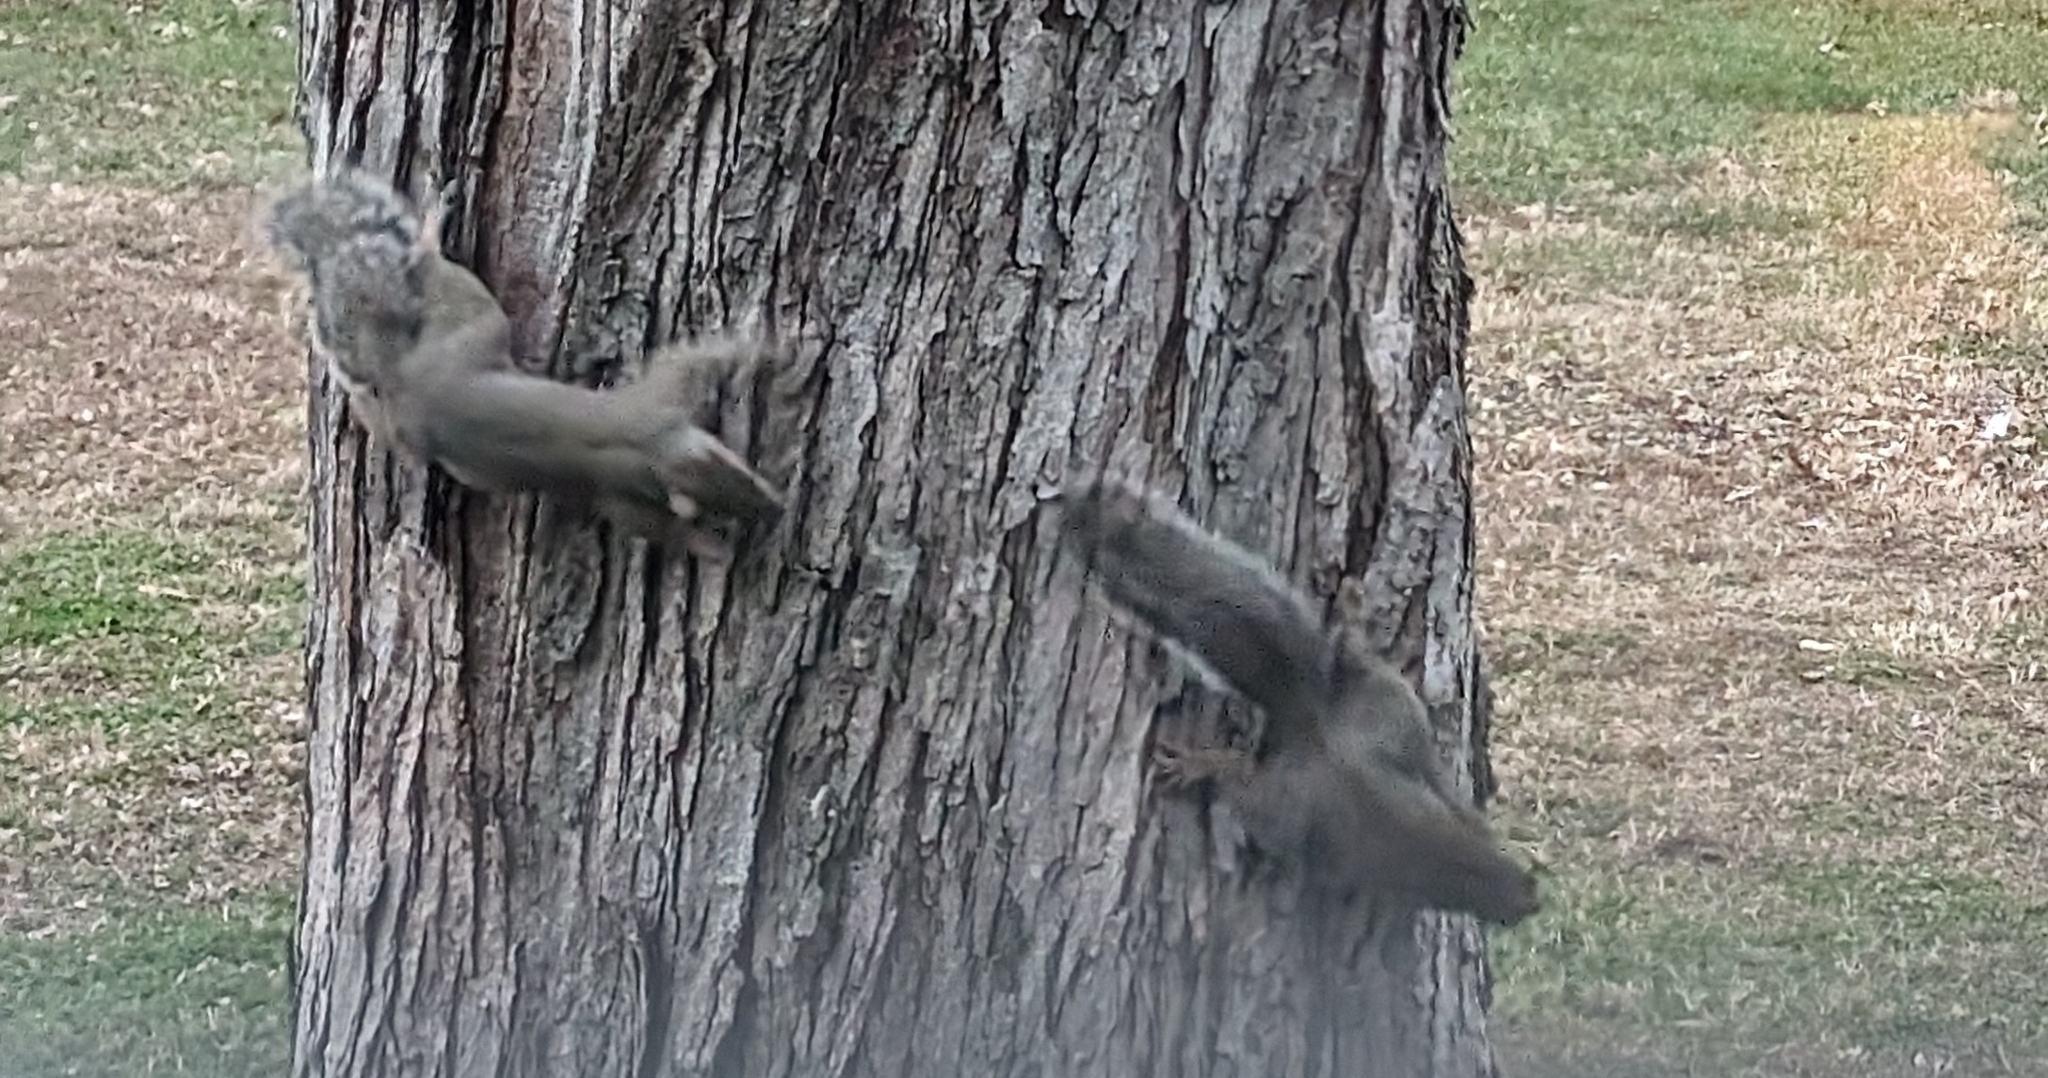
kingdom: Animalia
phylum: Chordata
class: Mammalia
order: Rodentia
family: Sciuridae
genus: Sciurus
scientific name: Sciurus carolinensis
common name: Eastern gray squirrel
